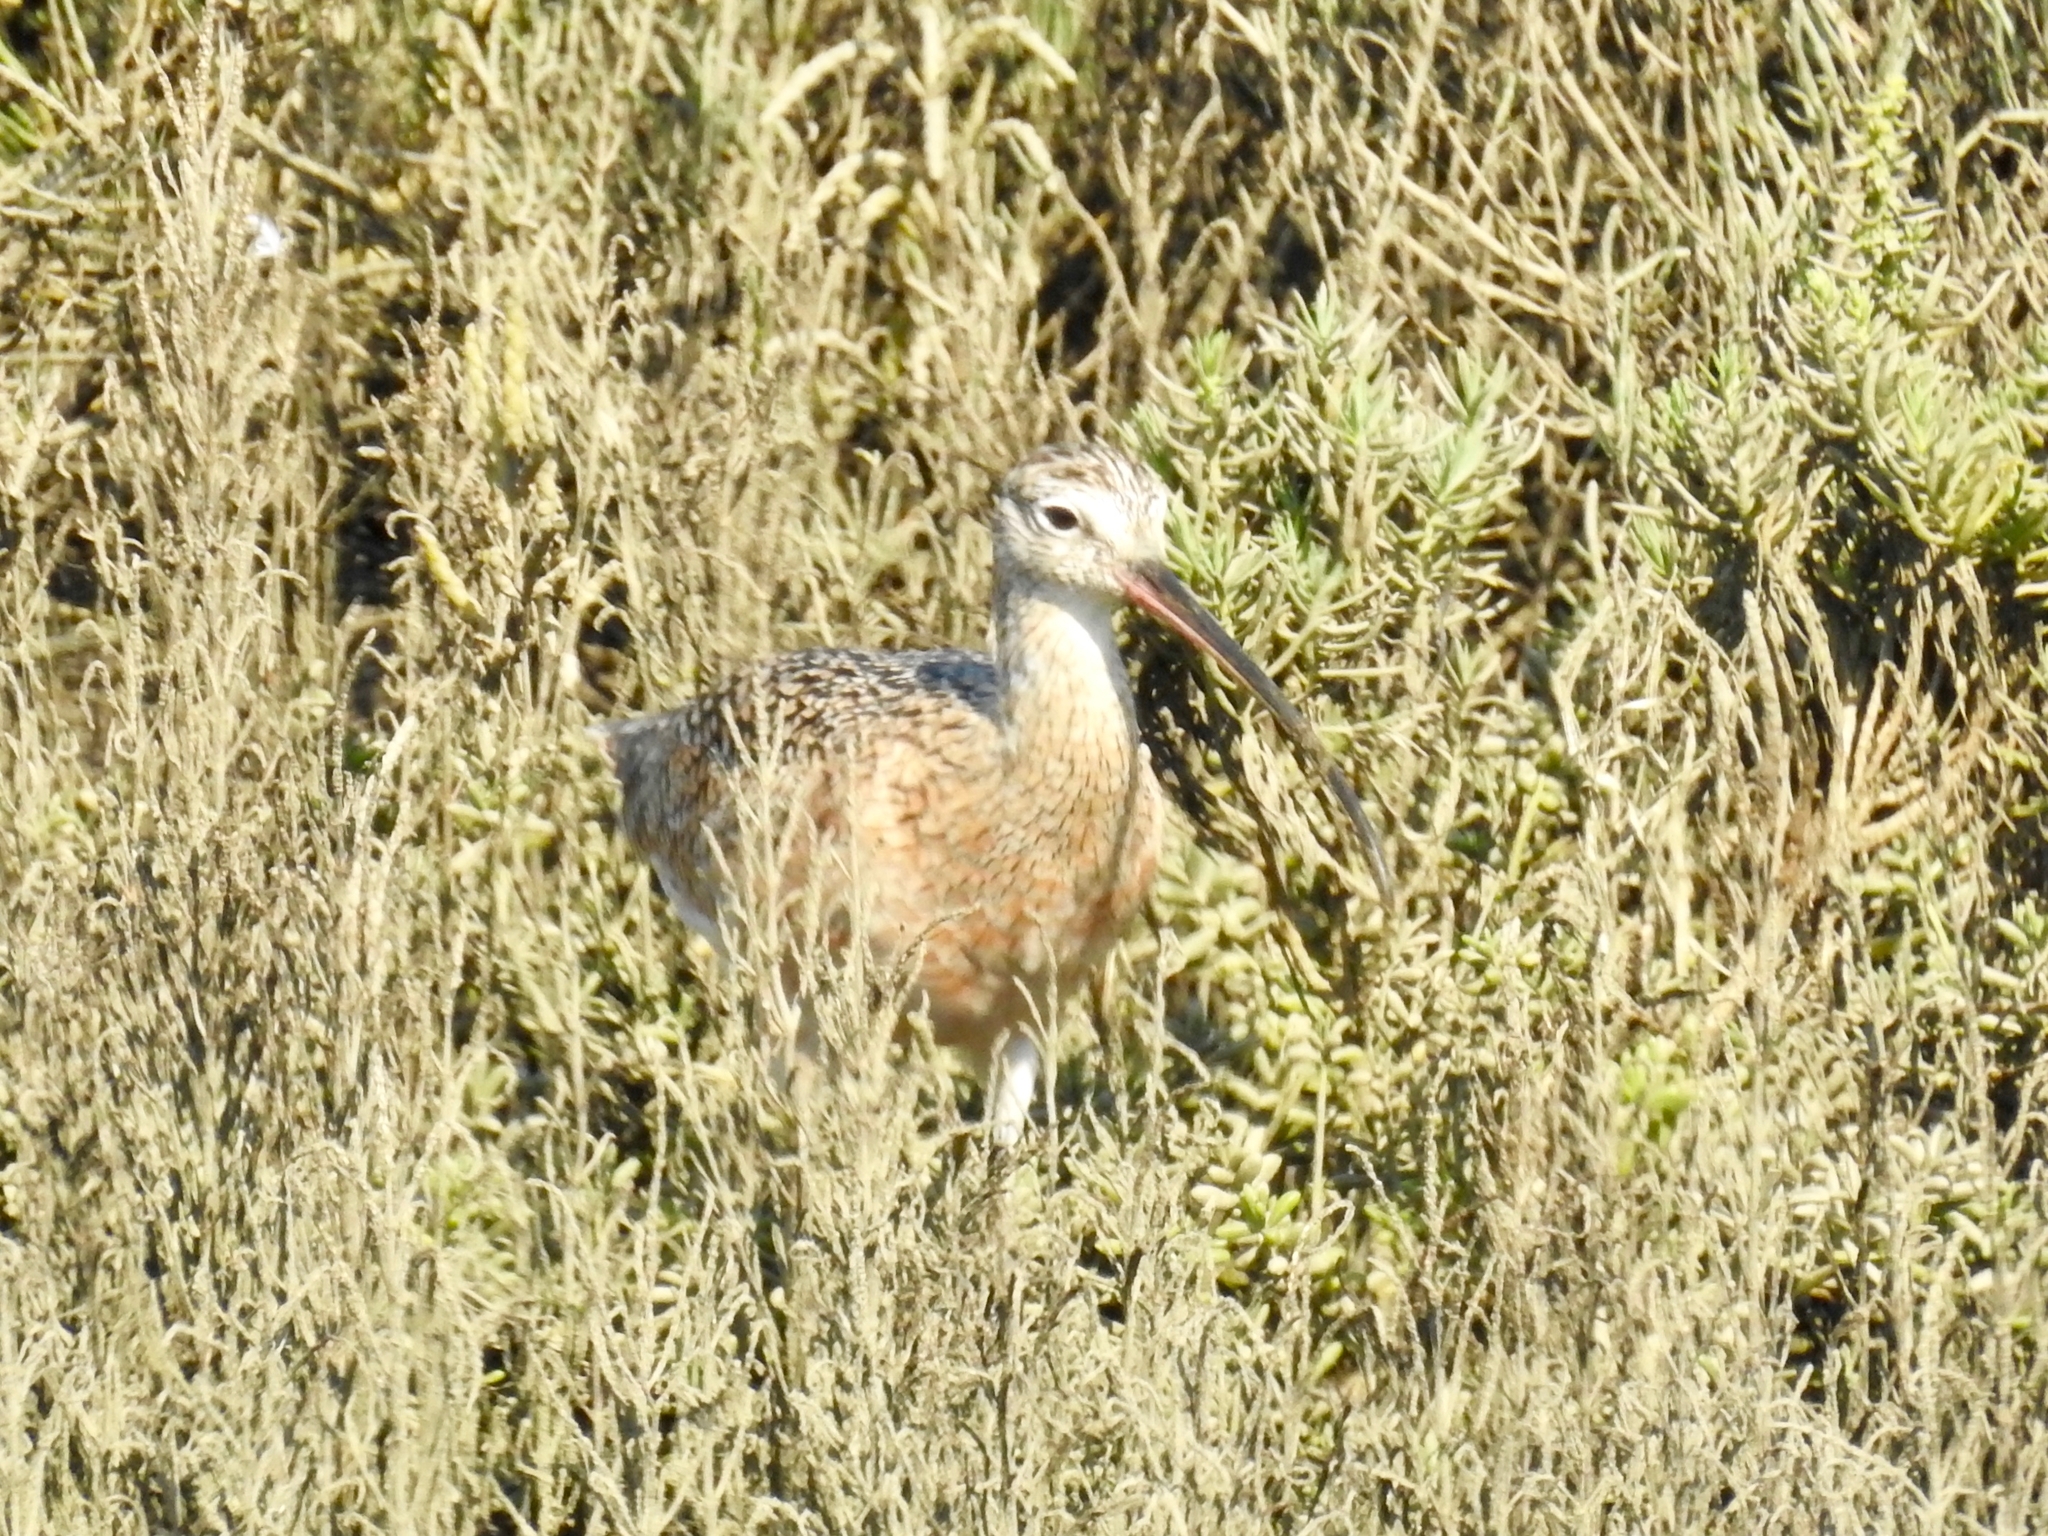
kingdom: Animalia
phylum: Chordata
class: Aves
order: Charadriiformes
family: Scolopacidae
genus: Numenius
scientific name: Numenius americanus
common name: Long-billed curlew
